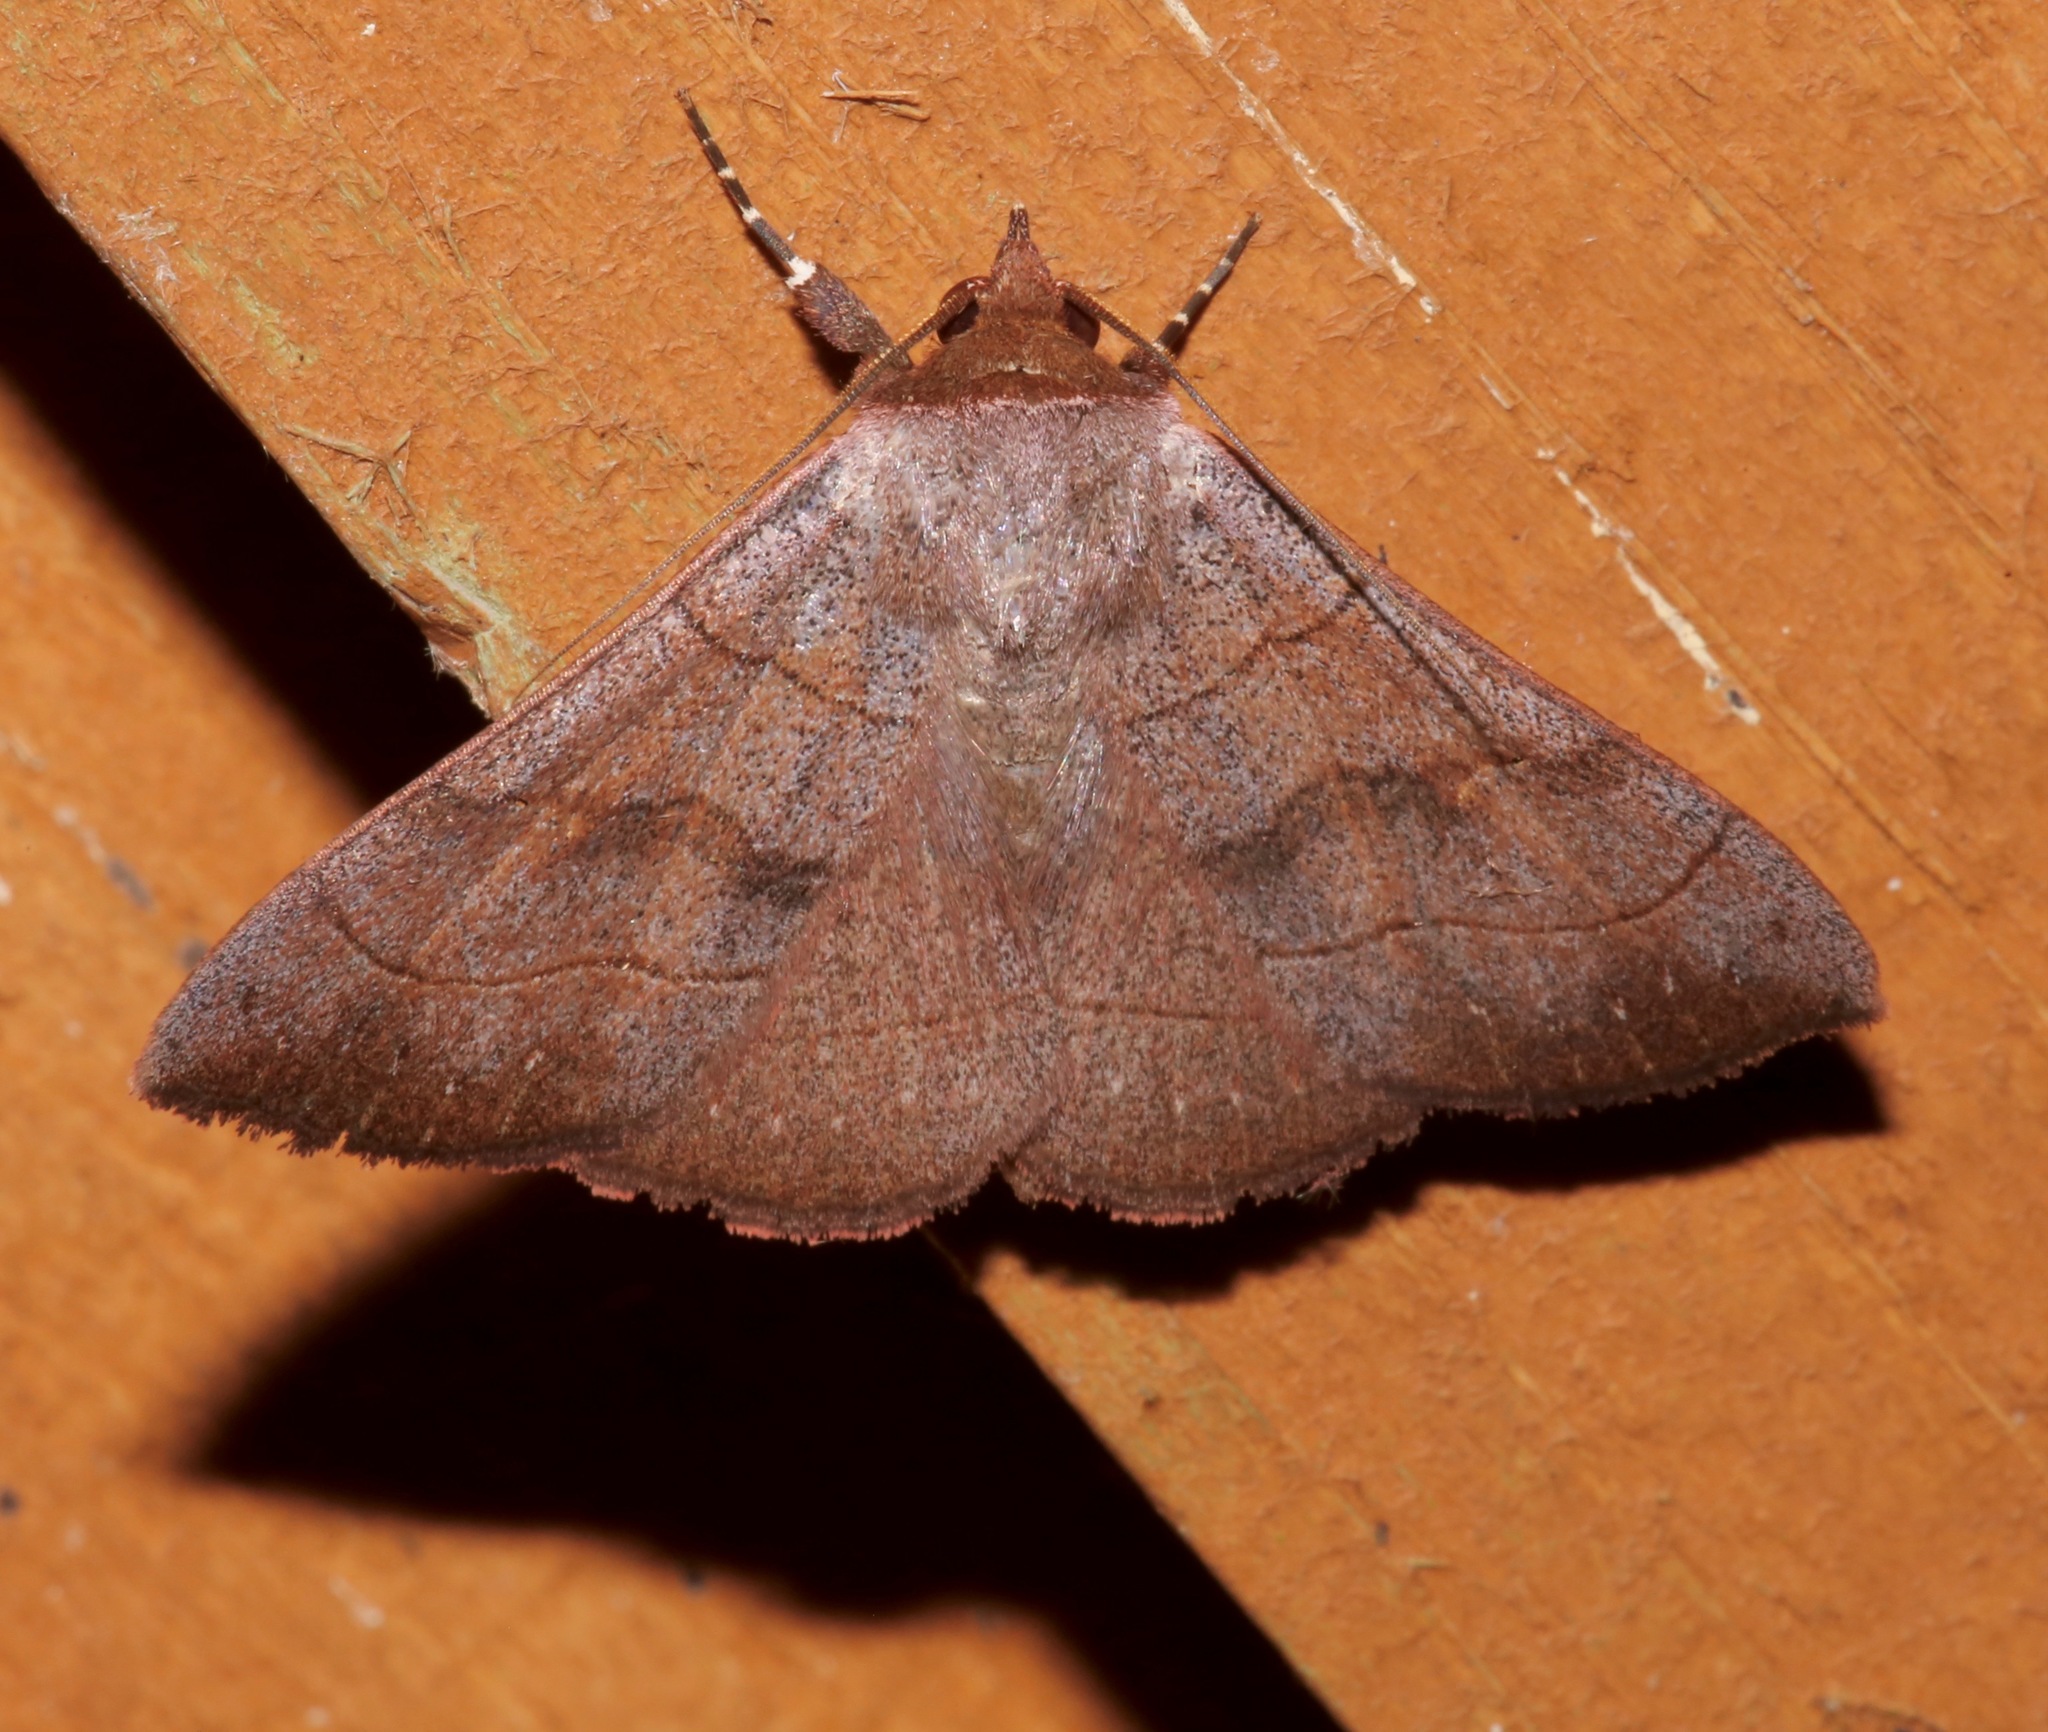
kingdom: Animalia
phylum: Arthropoda
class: Insecta
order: Lepidoptera
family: Erebidae
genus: Panopoda
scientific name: Panopoda carneicosta
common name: Brown panopoda moth
